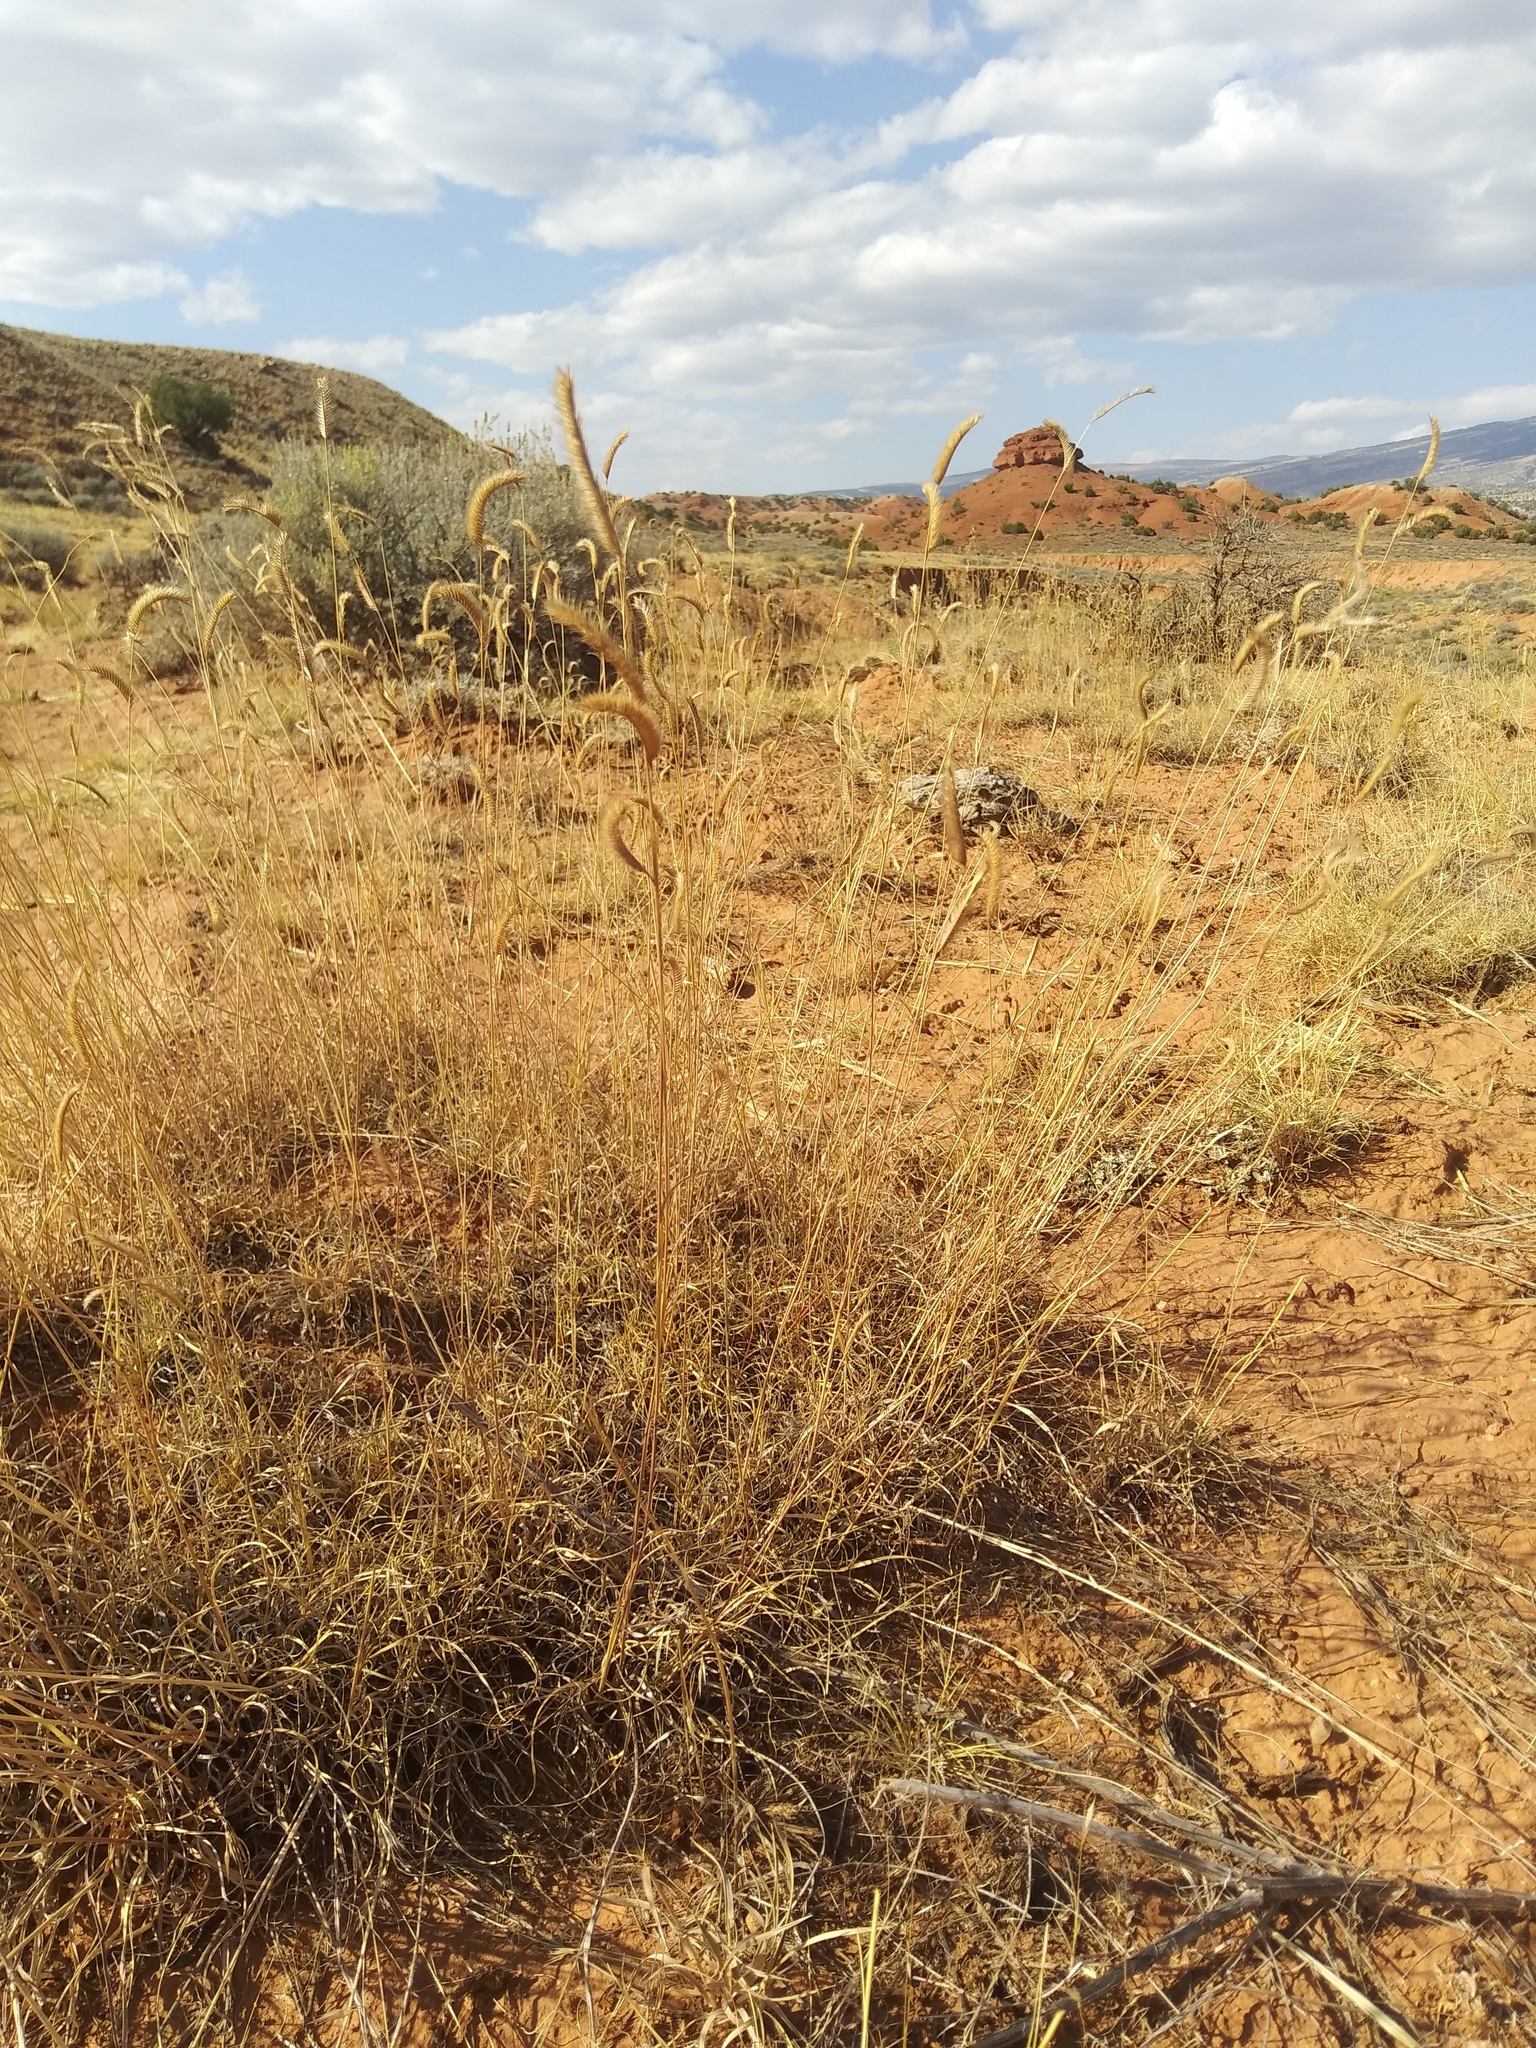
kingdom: Plantae
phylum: Tracheophyta
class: Liliopsida
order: Poales
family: Poaceae
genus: Bouteloua
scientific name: Bouteloua gracilis
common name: Blue grama
